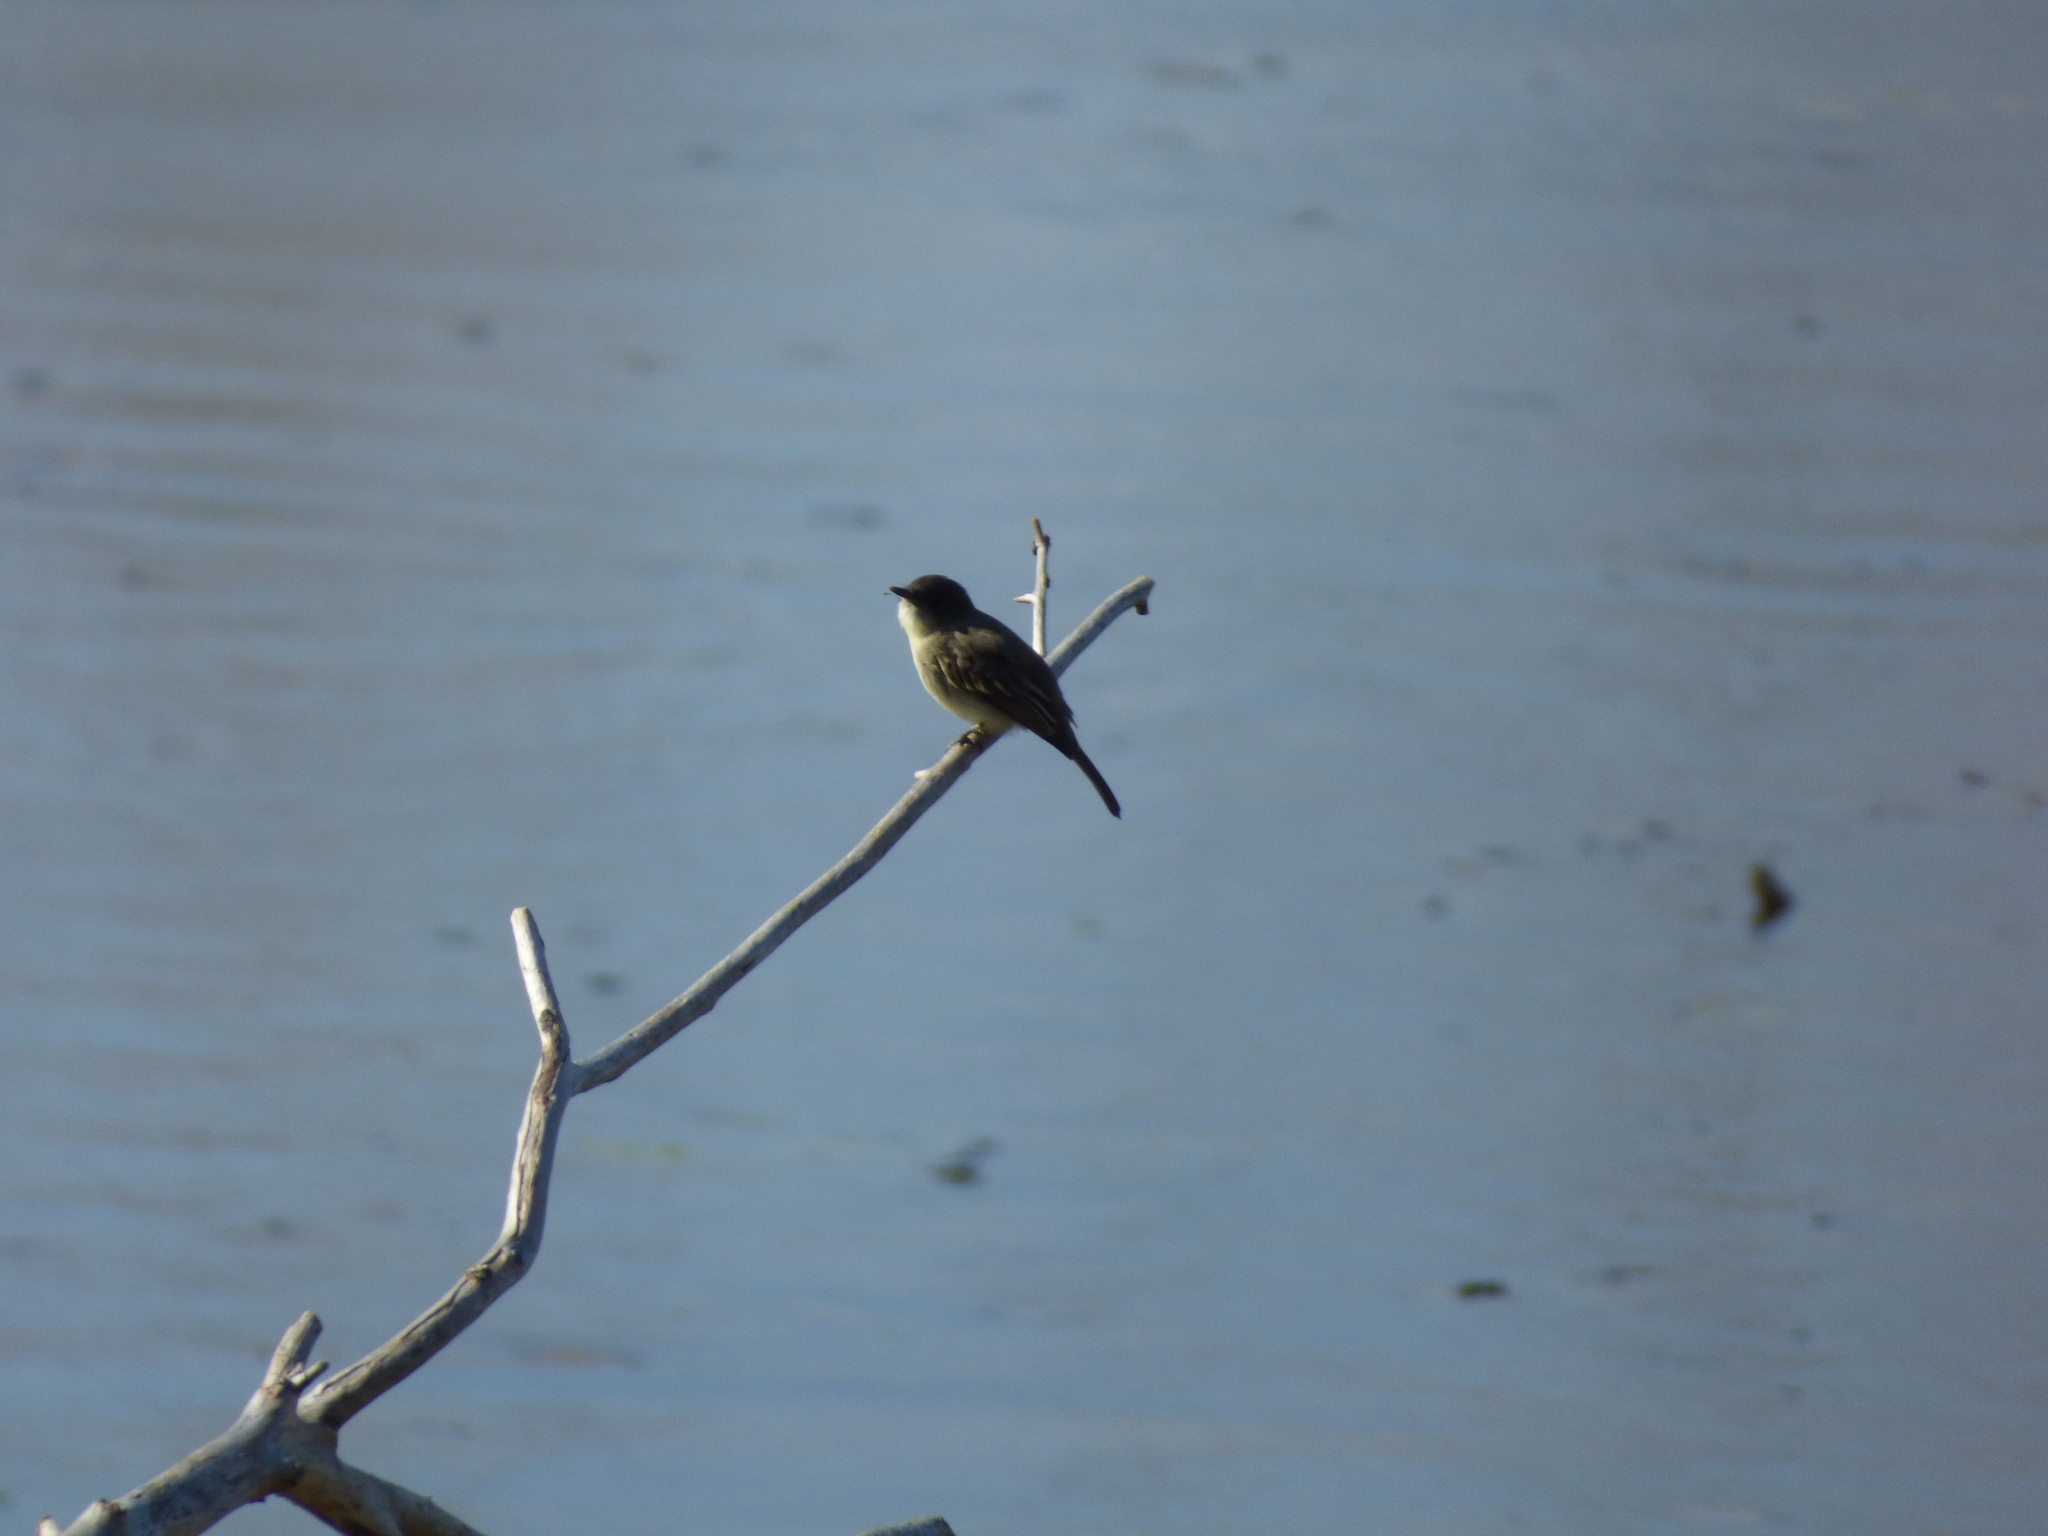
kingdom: Animalia
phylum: Chordata
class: Aves
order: Passeriformes
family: Tyrannidae
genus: Sayornis
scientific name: Sayornis phoebe
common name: Eastern phoebe
